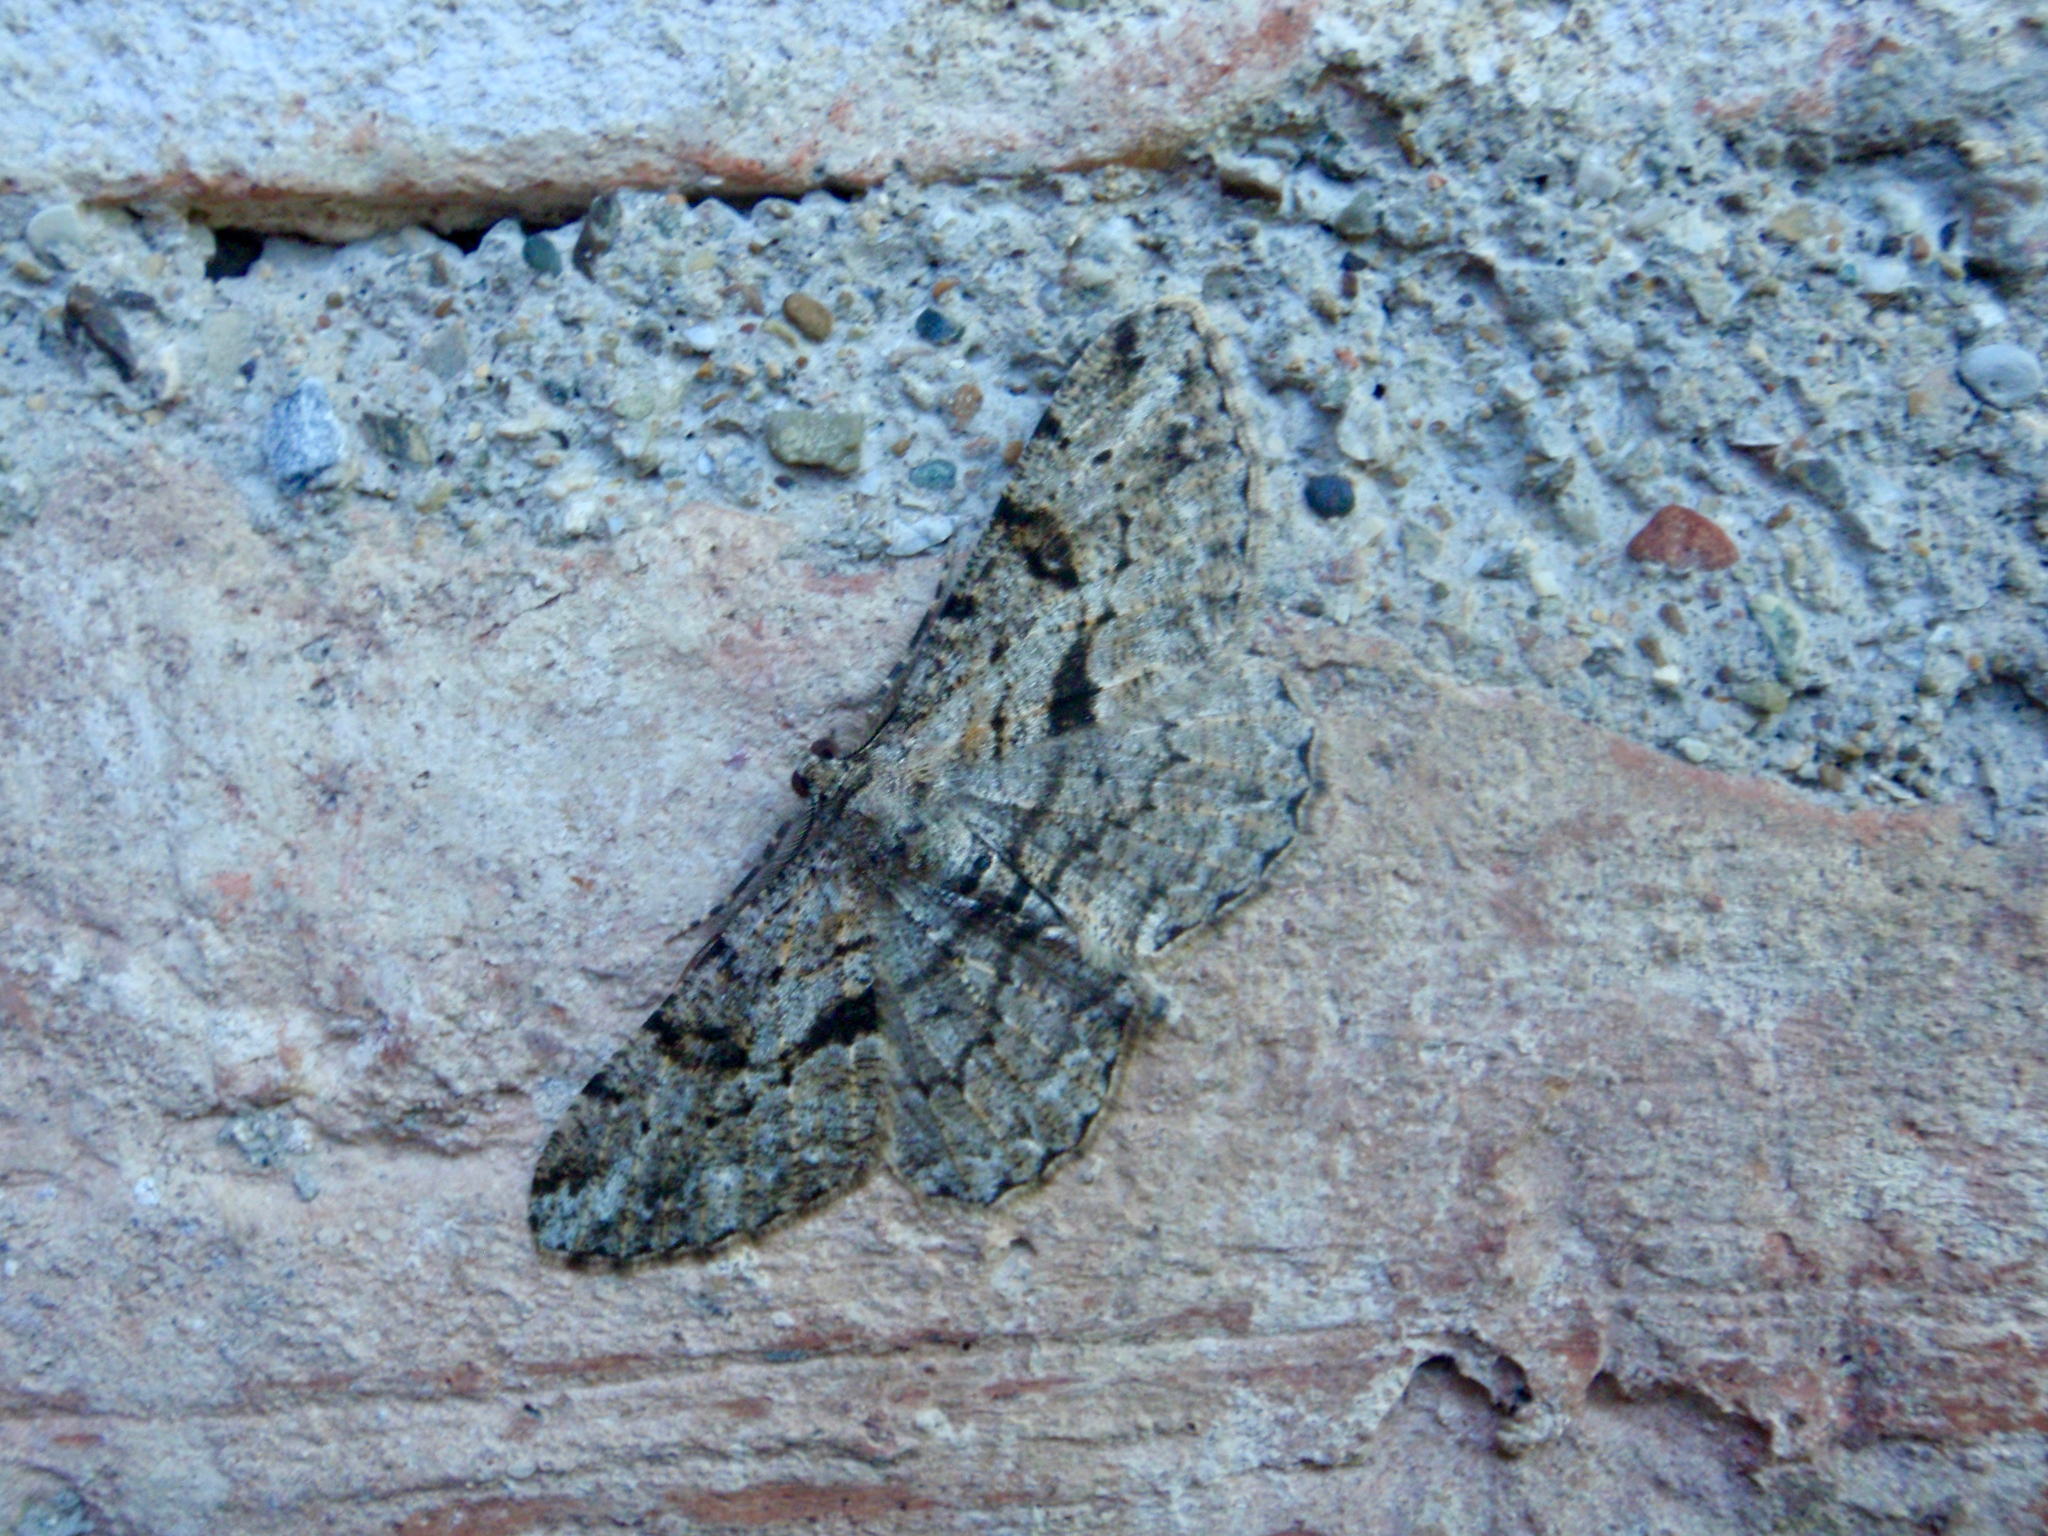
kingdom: Animalia
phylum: Arthropoda
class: Insecta
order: Lepidoptera
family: Geometridae
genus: Peribatodes
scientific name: Peribatodes rhomboidaria
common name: Willow beauty
